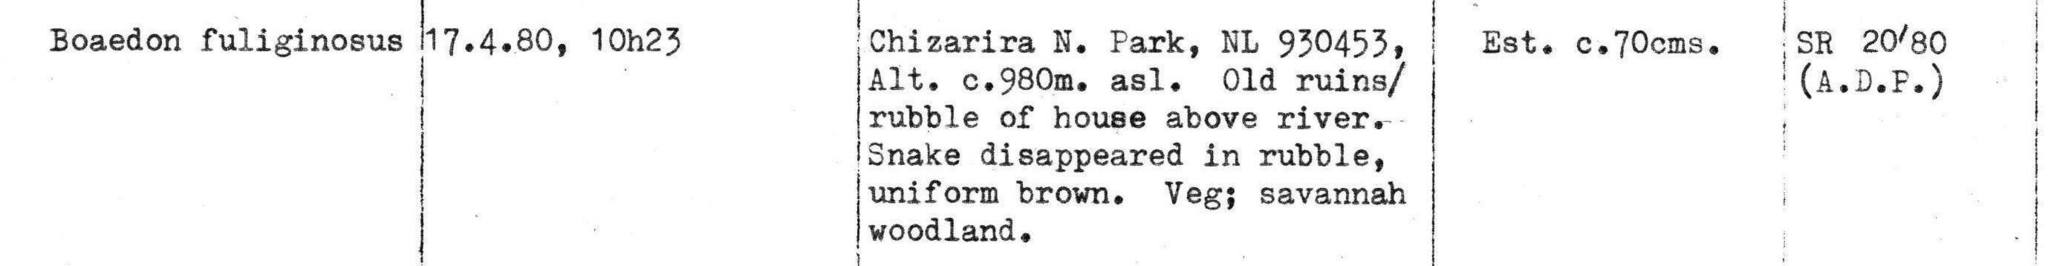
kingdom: Animalia
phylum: Chordata
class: Squamata
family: Lamprophiidae
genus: Boaedon
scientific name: Boaedon
